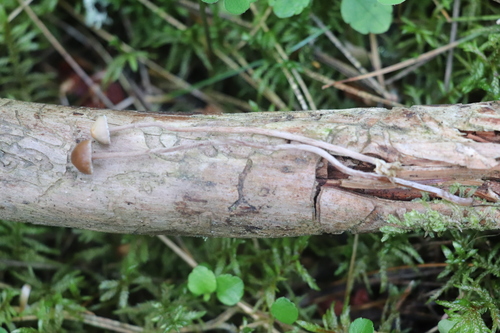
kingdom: Fungi
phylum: Basidiomycota
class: Agaricomycetes
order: Agaricales
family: Strophariaceae
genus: Deconica
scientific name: Deconica crobula
